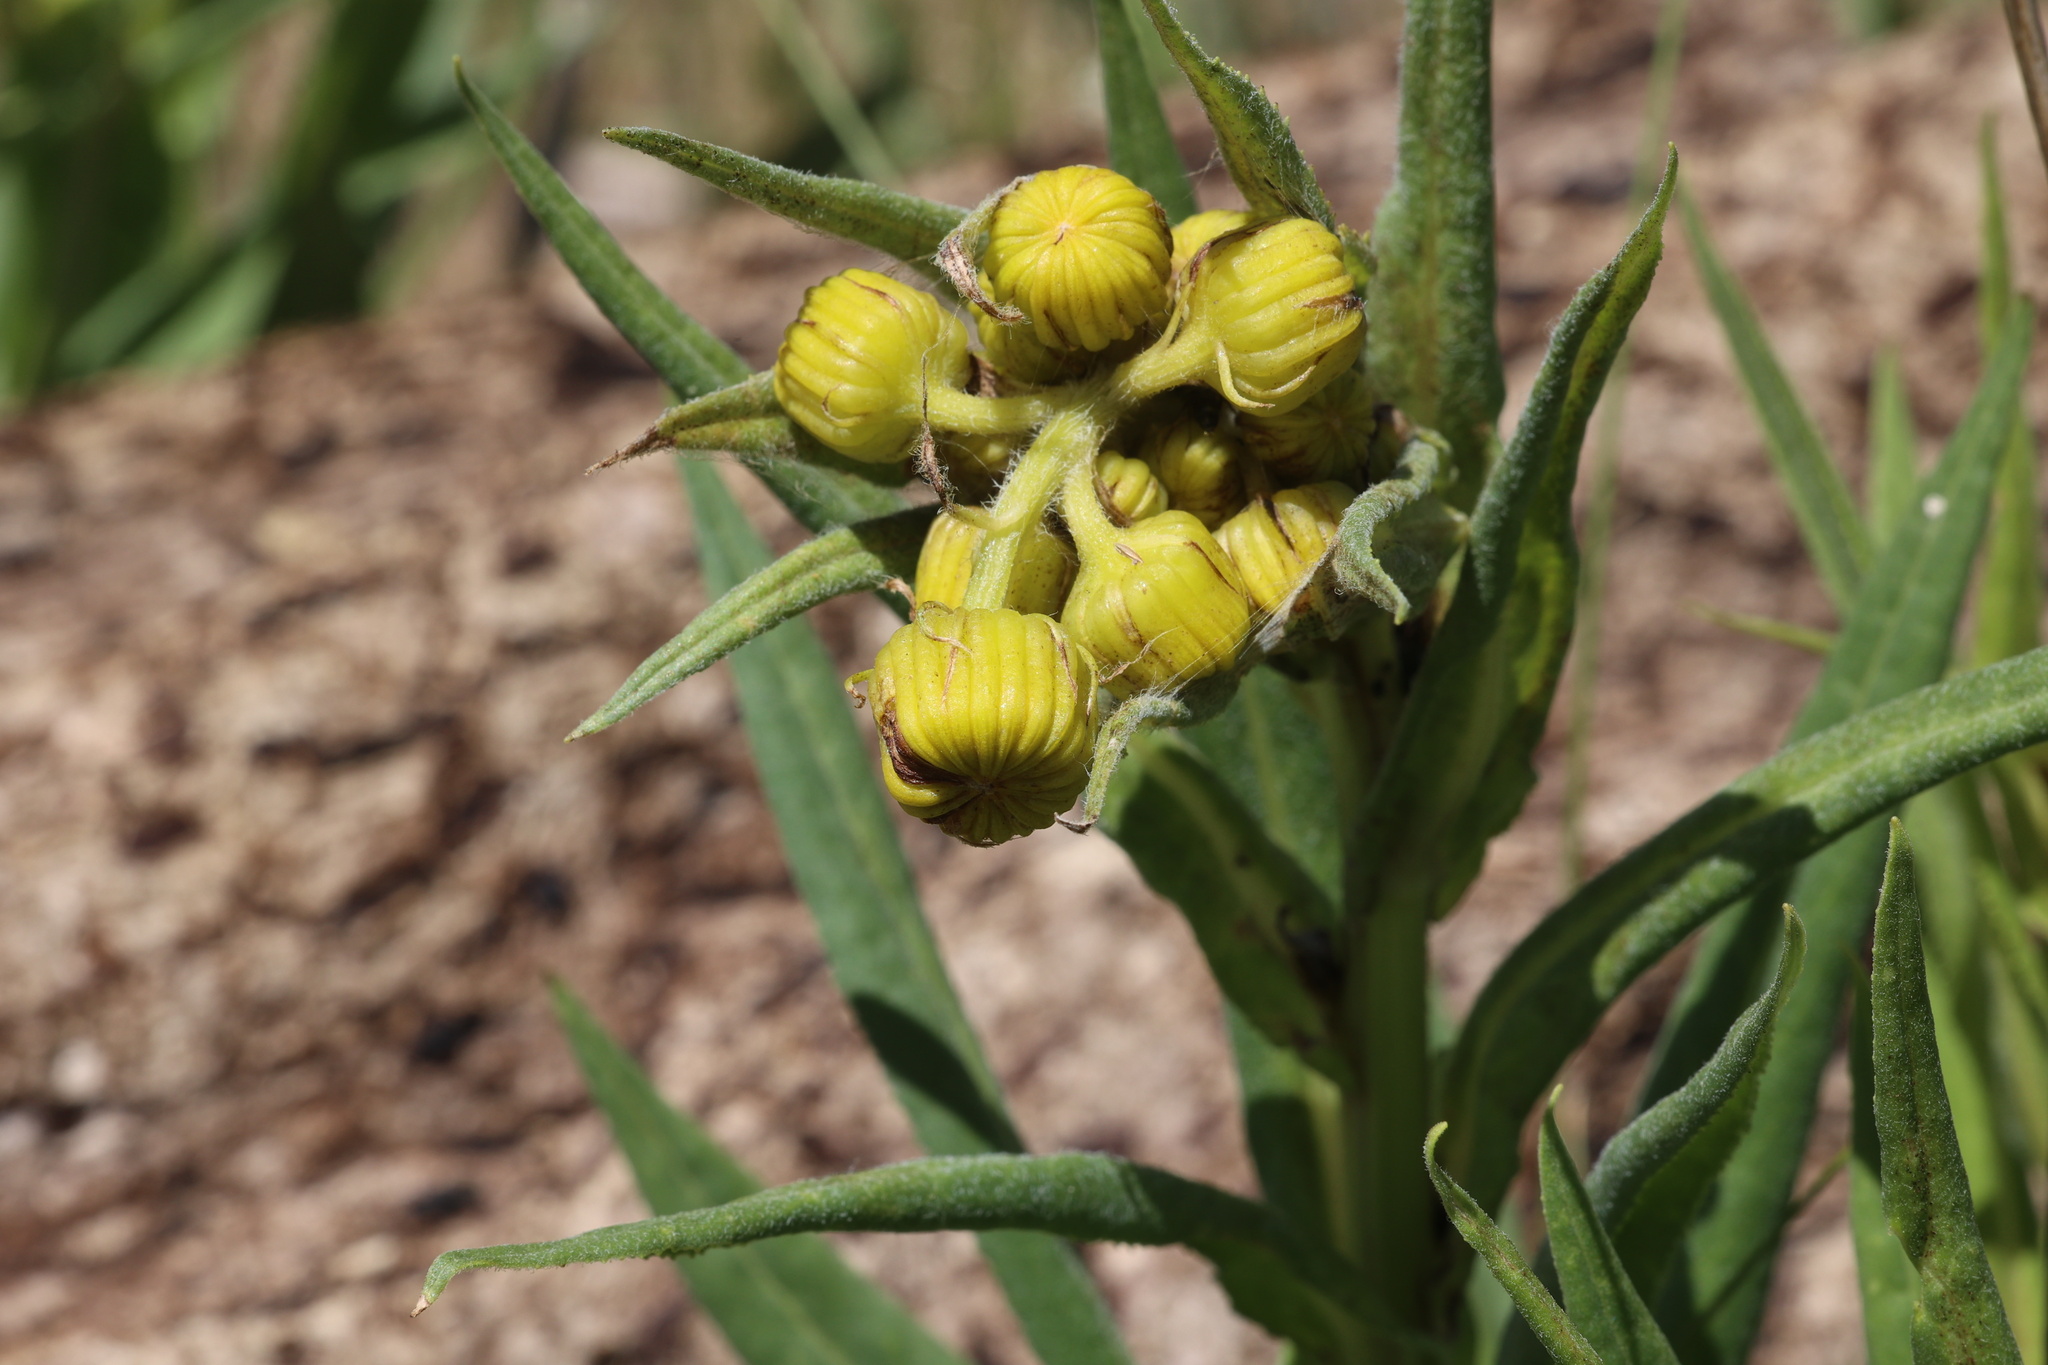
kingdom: Plantae
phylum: Tracheophyta
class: Magnoliopsida
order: Asterales
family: Asteraceae
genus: Senecio
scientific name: Senecio bigelovii
